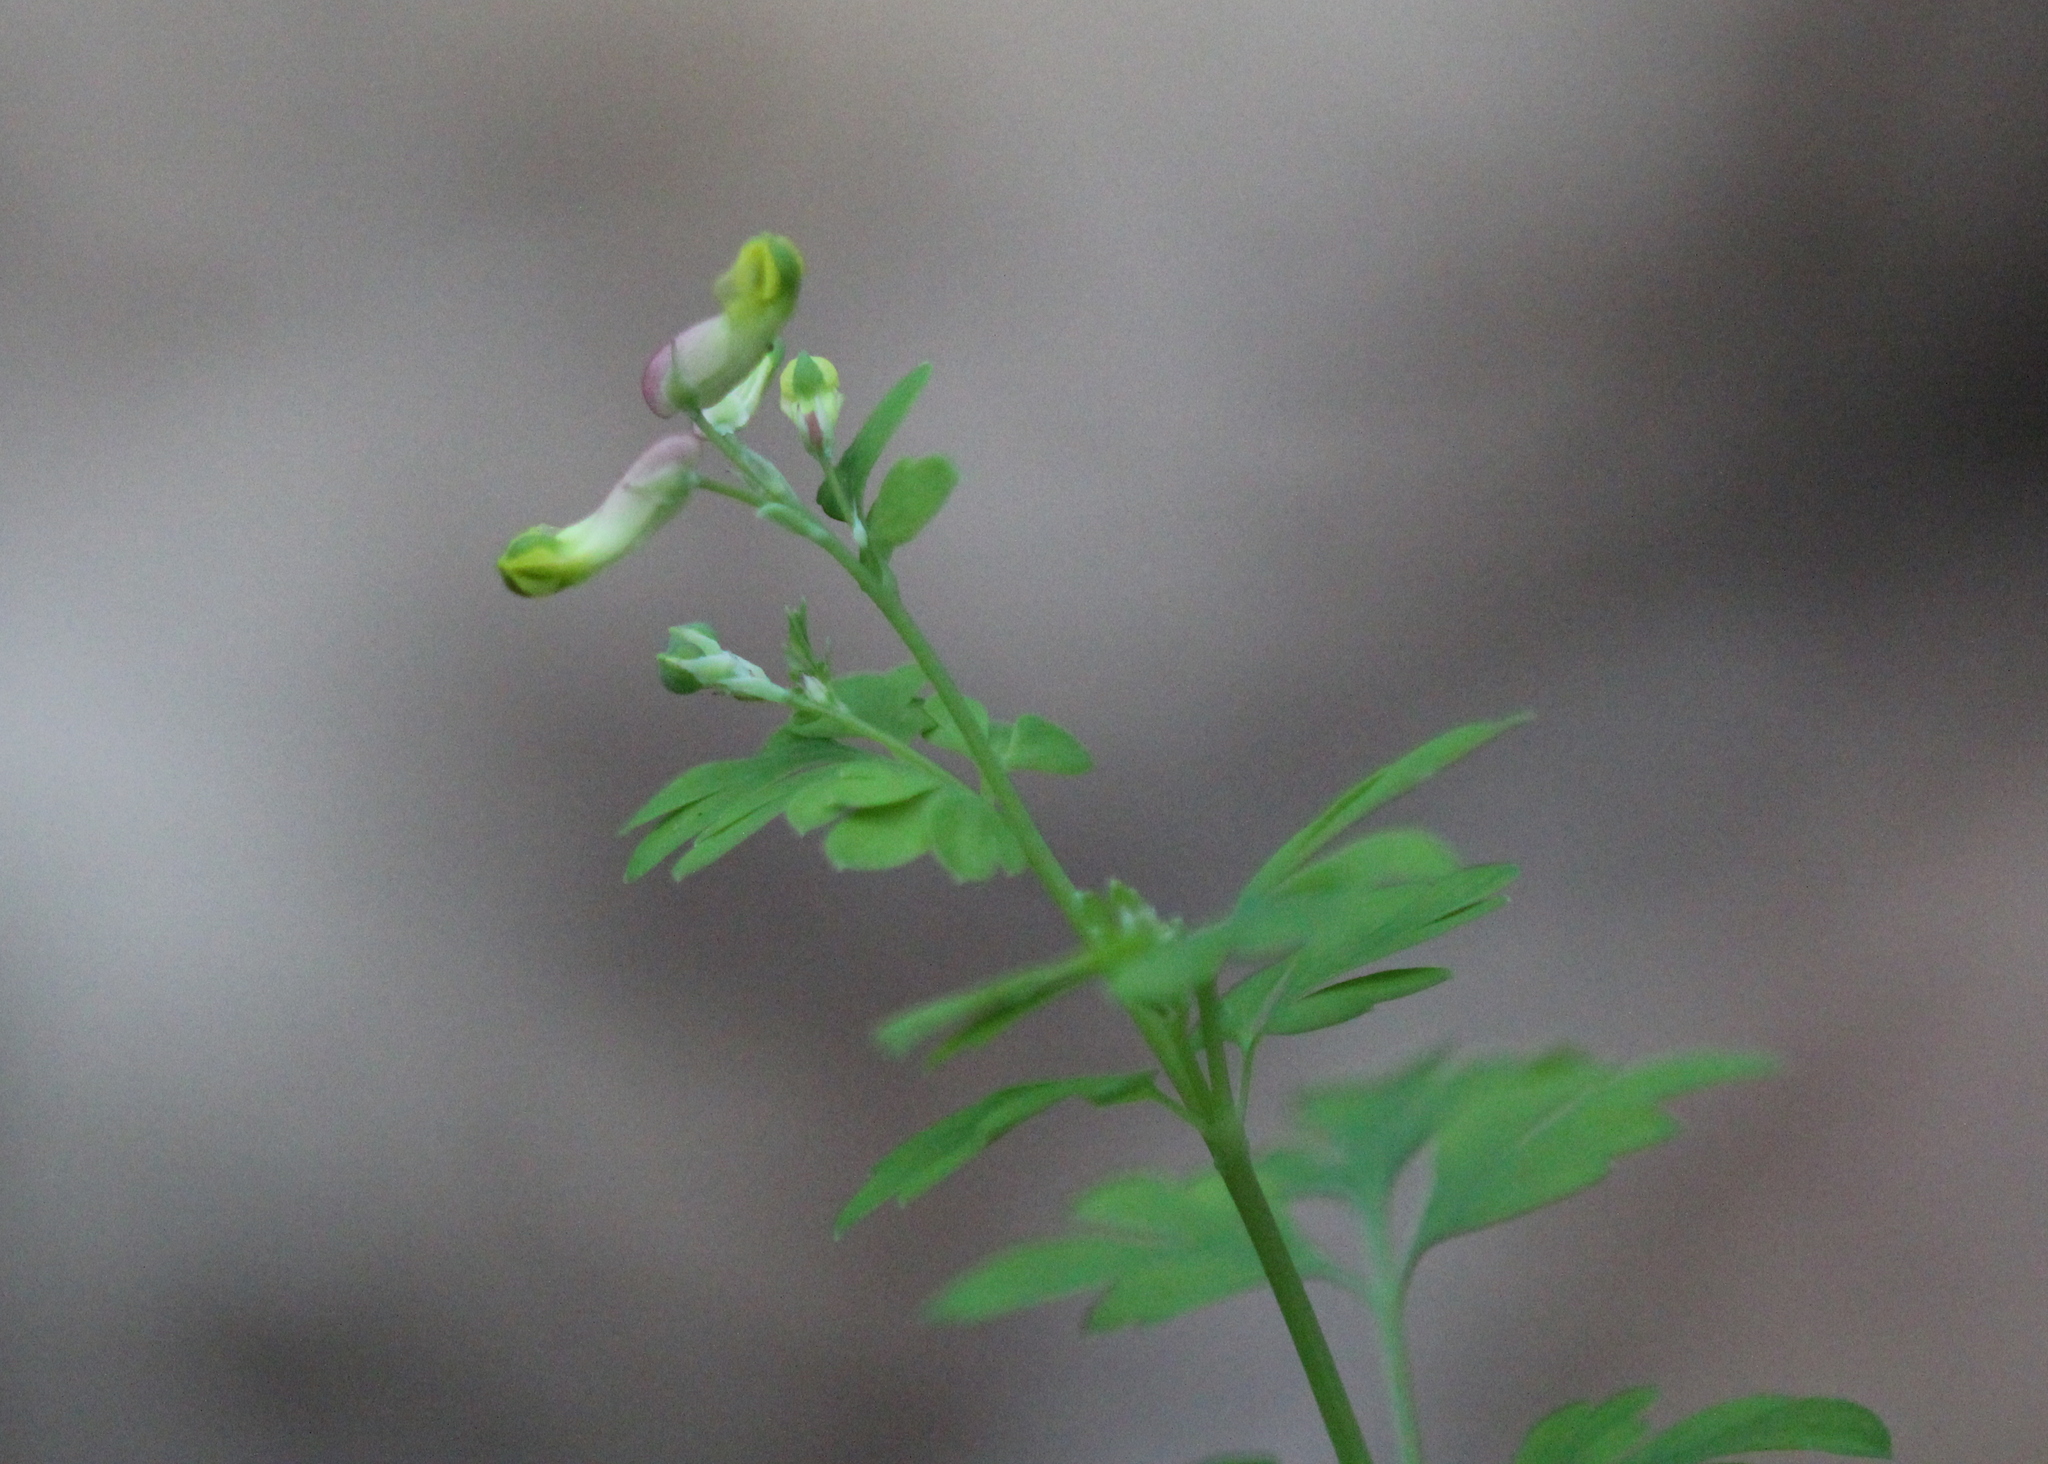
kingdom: Plantae
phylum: Tracheophyta
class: Magnoliopsida
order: Ranunculales
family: Papaveraceae
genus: Capnoides
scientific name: Capnoides sempervirens
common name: Rock harlequin
